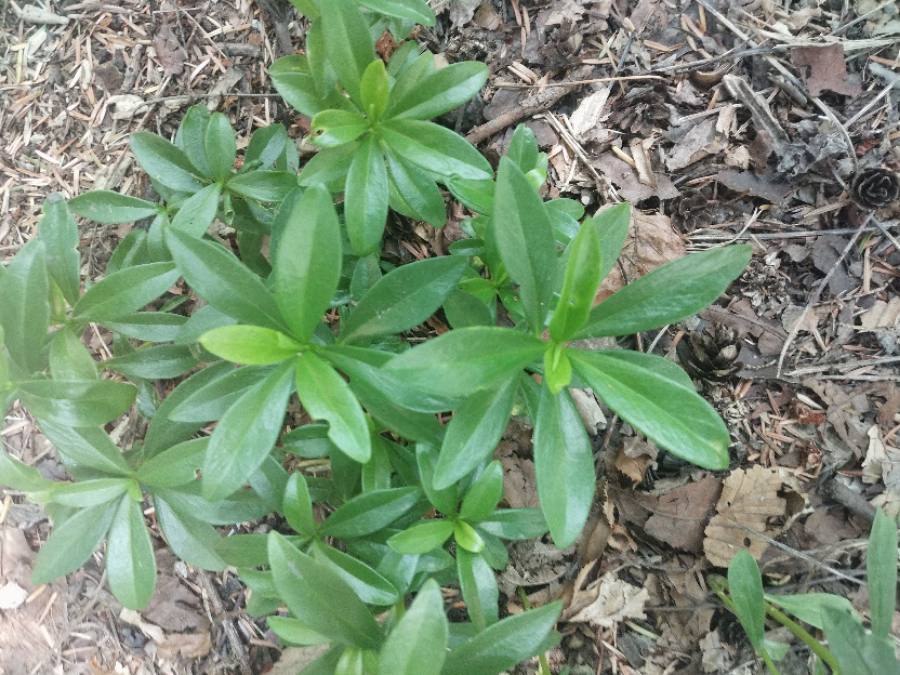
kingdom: Plantae
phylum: Tracheophyta
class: Magnoliopsida
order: Malvales
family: Thymelaeaceae
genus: Daphne
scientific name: Daphne laureola
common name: Spurge-laurel
